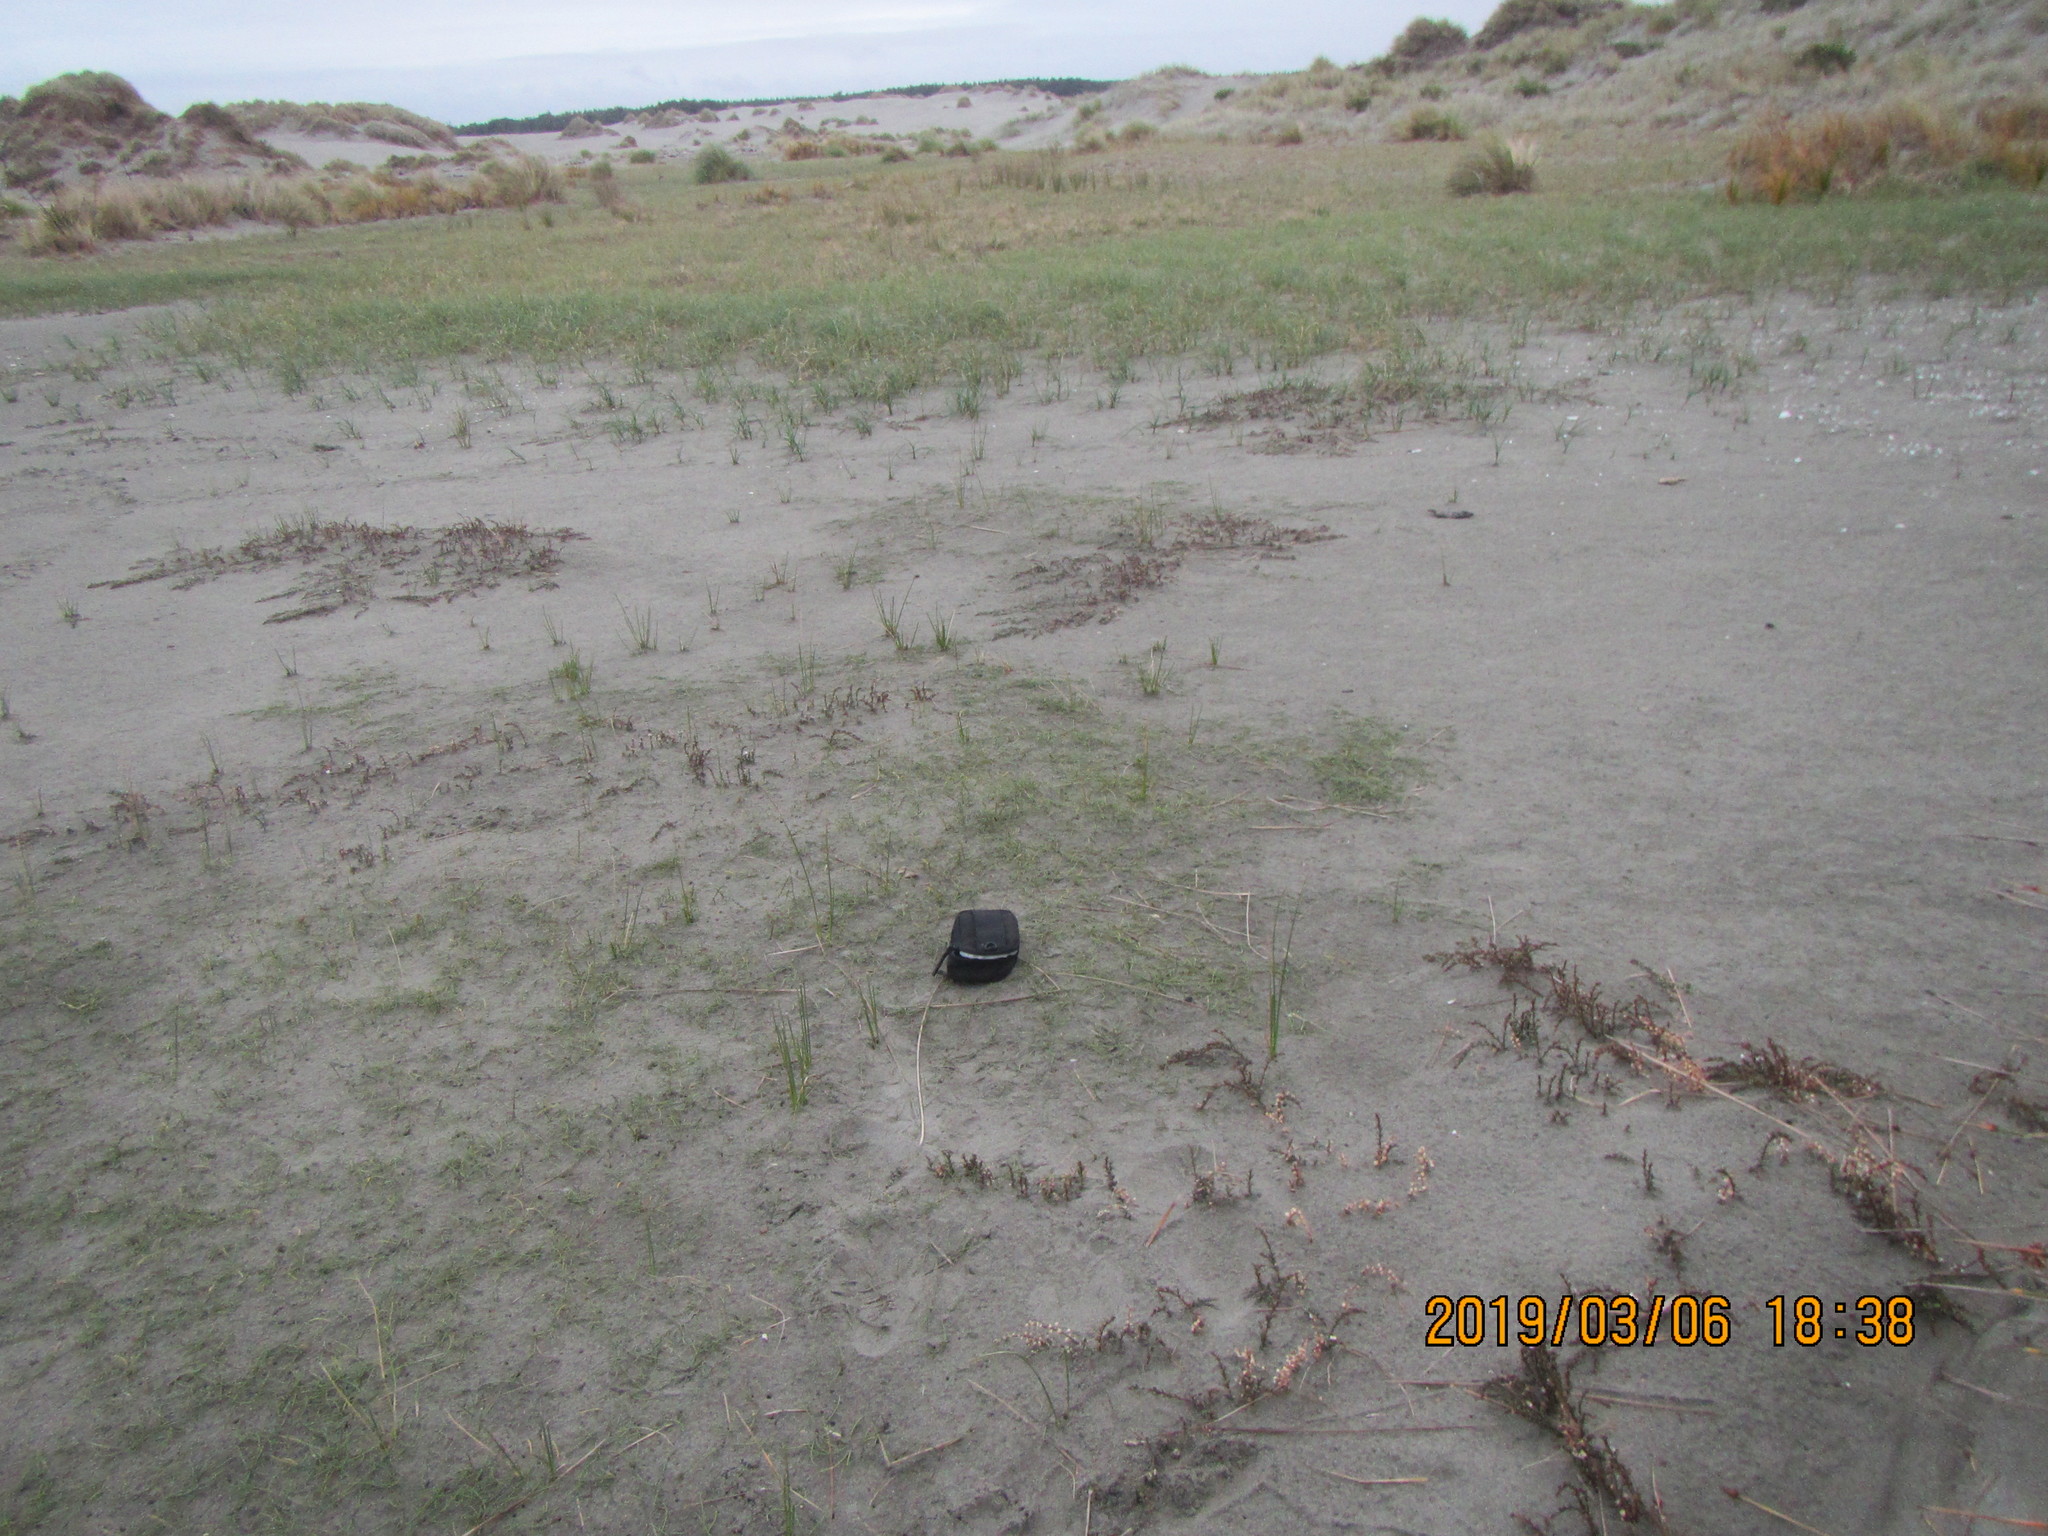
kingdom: Plantae
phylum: Tracheophyta
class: Liliopsida
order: Alismatales
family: Juncaginaceae
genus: Triglochin
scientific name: Triglochin striata
